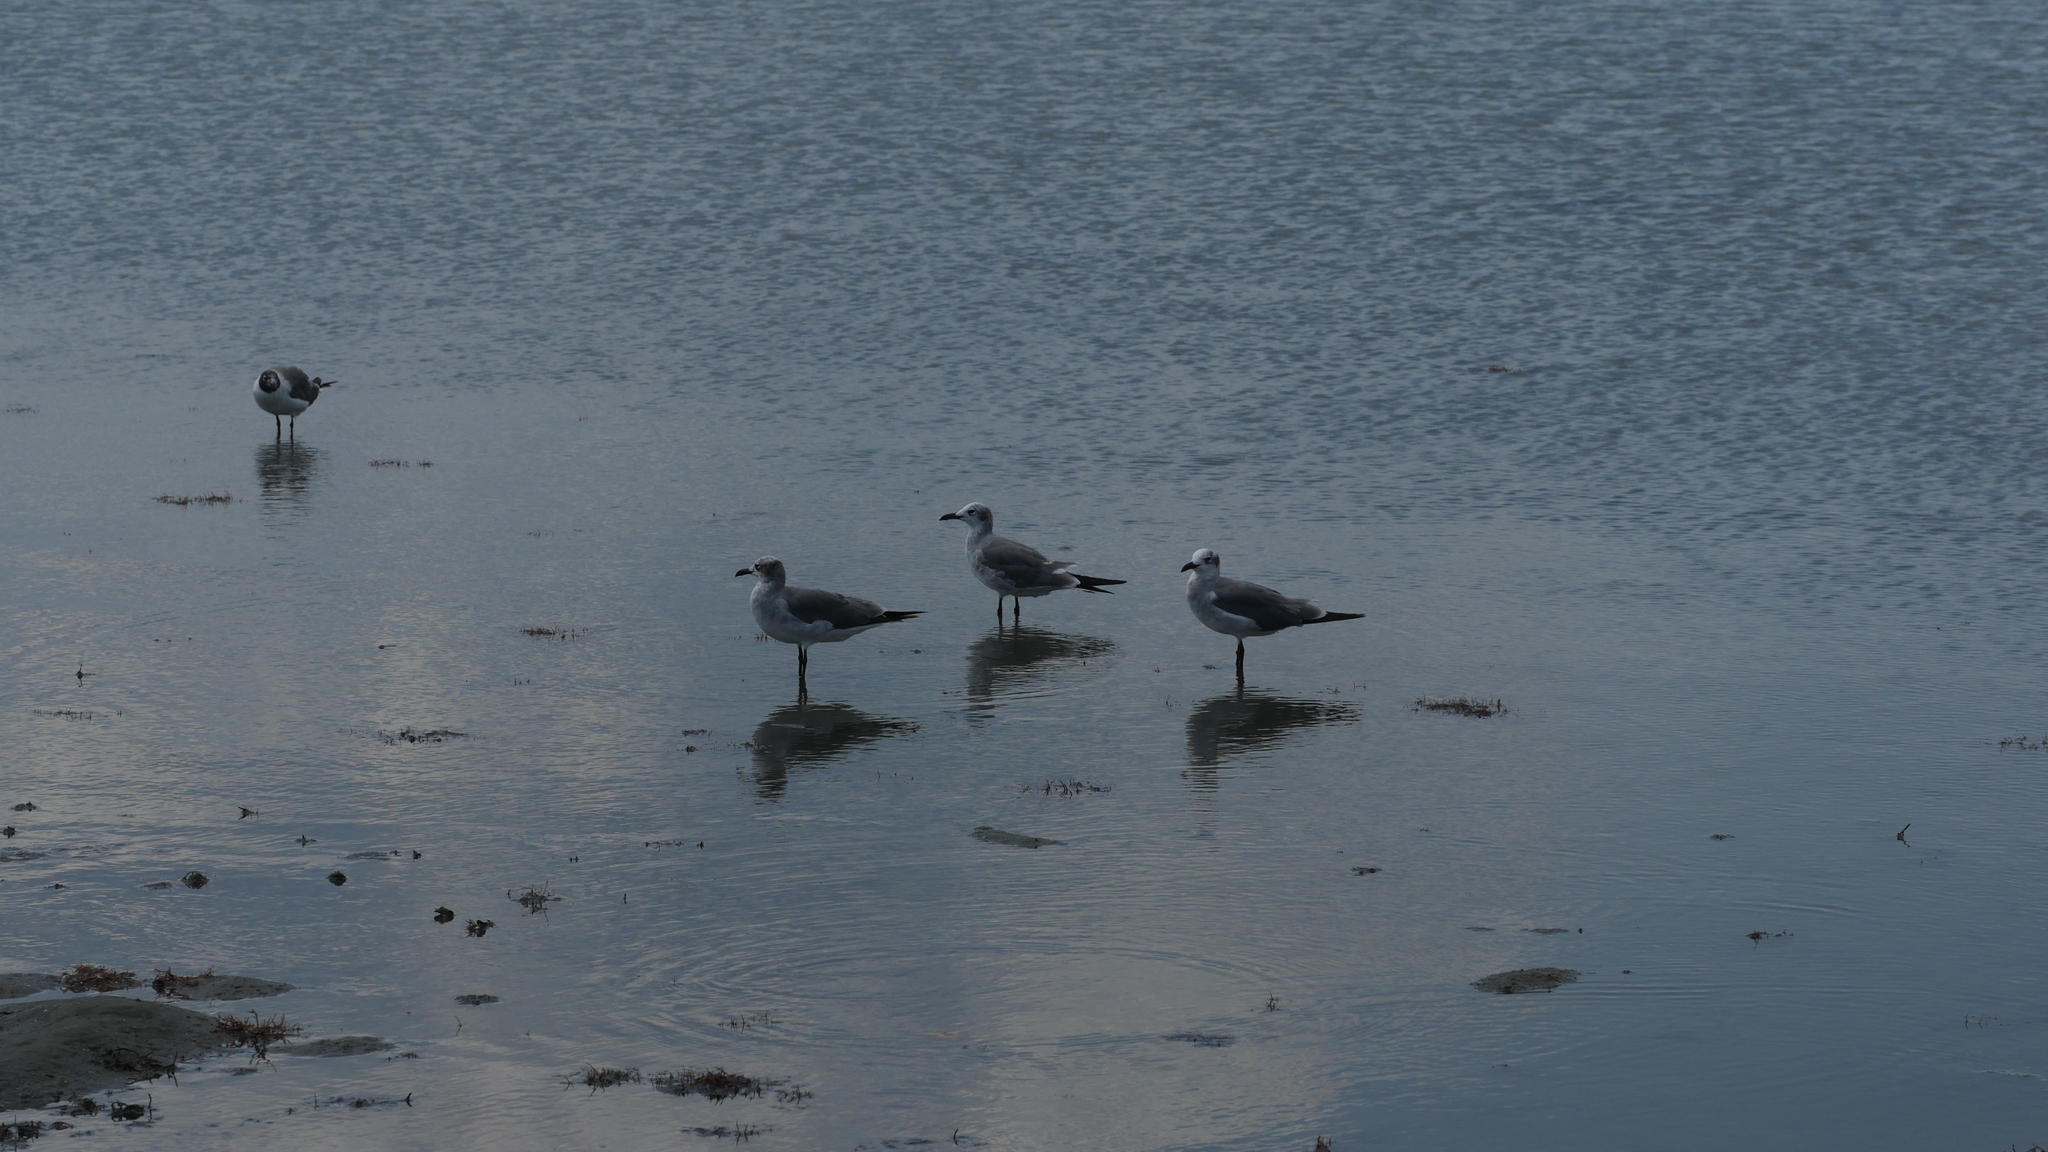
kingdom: Animalia
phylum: Chordata
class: Aves
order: Charadriiformes
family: Laridae
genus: Leucophaeus
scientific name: Leucophaeus atricilla
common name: Laughing gull
